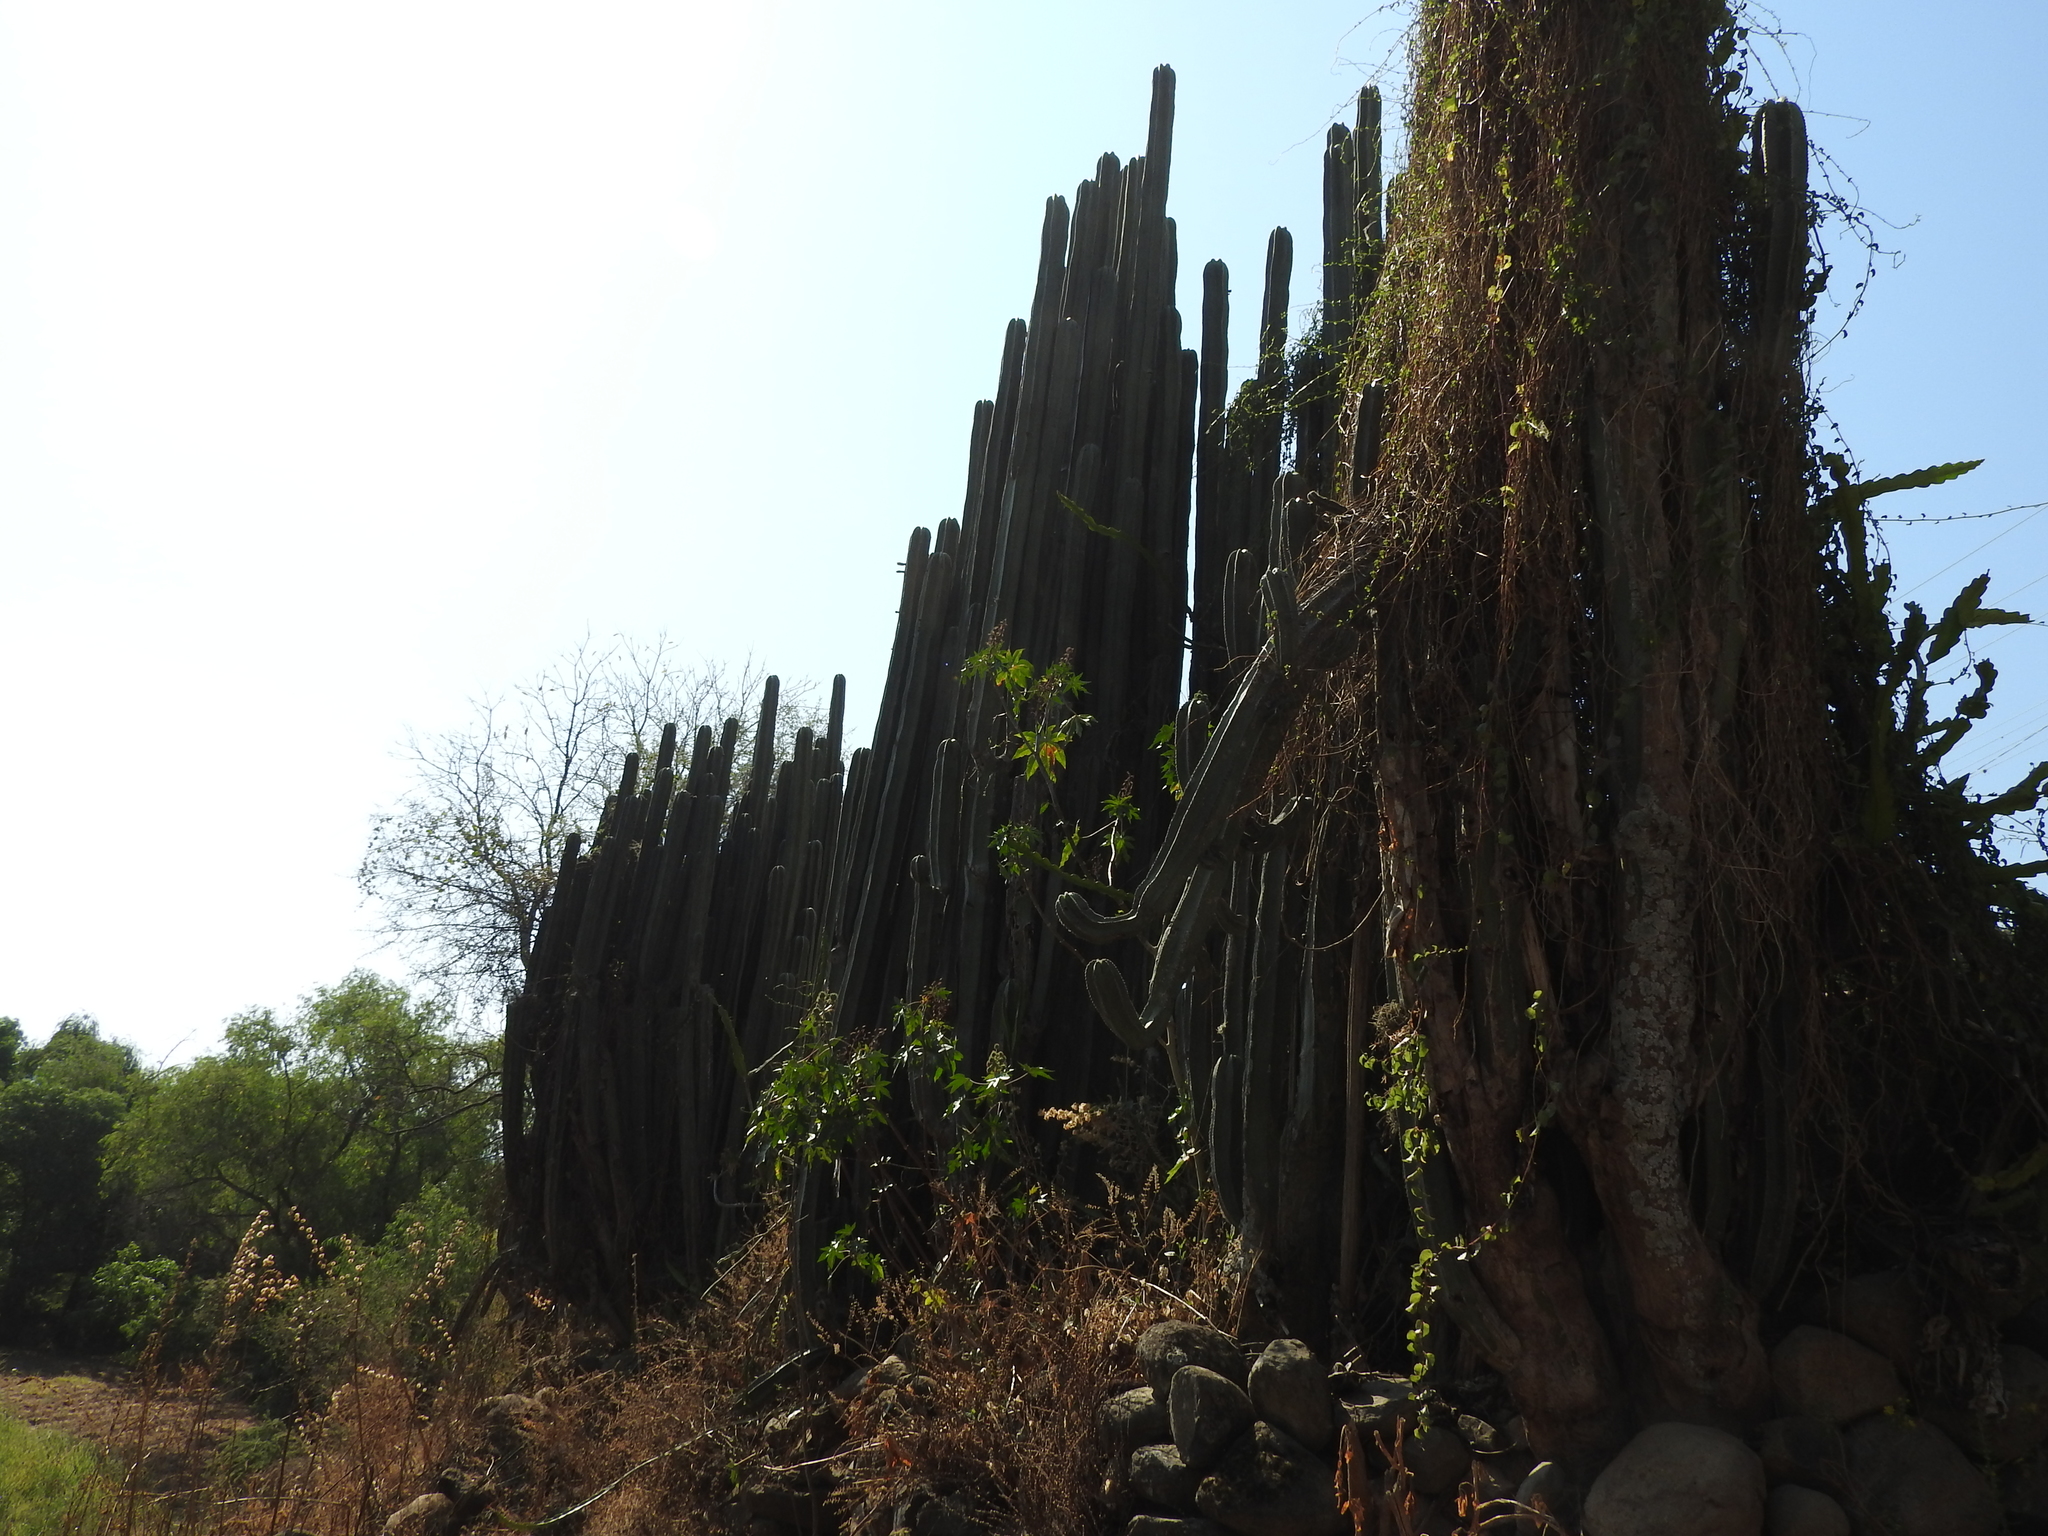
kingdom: Plantae
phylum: Tracheophyta
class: Magnoliopsida
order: Caryophyllales
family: Cactaceae
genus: Marginatocereus
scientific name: Marginatocereus marginatus
